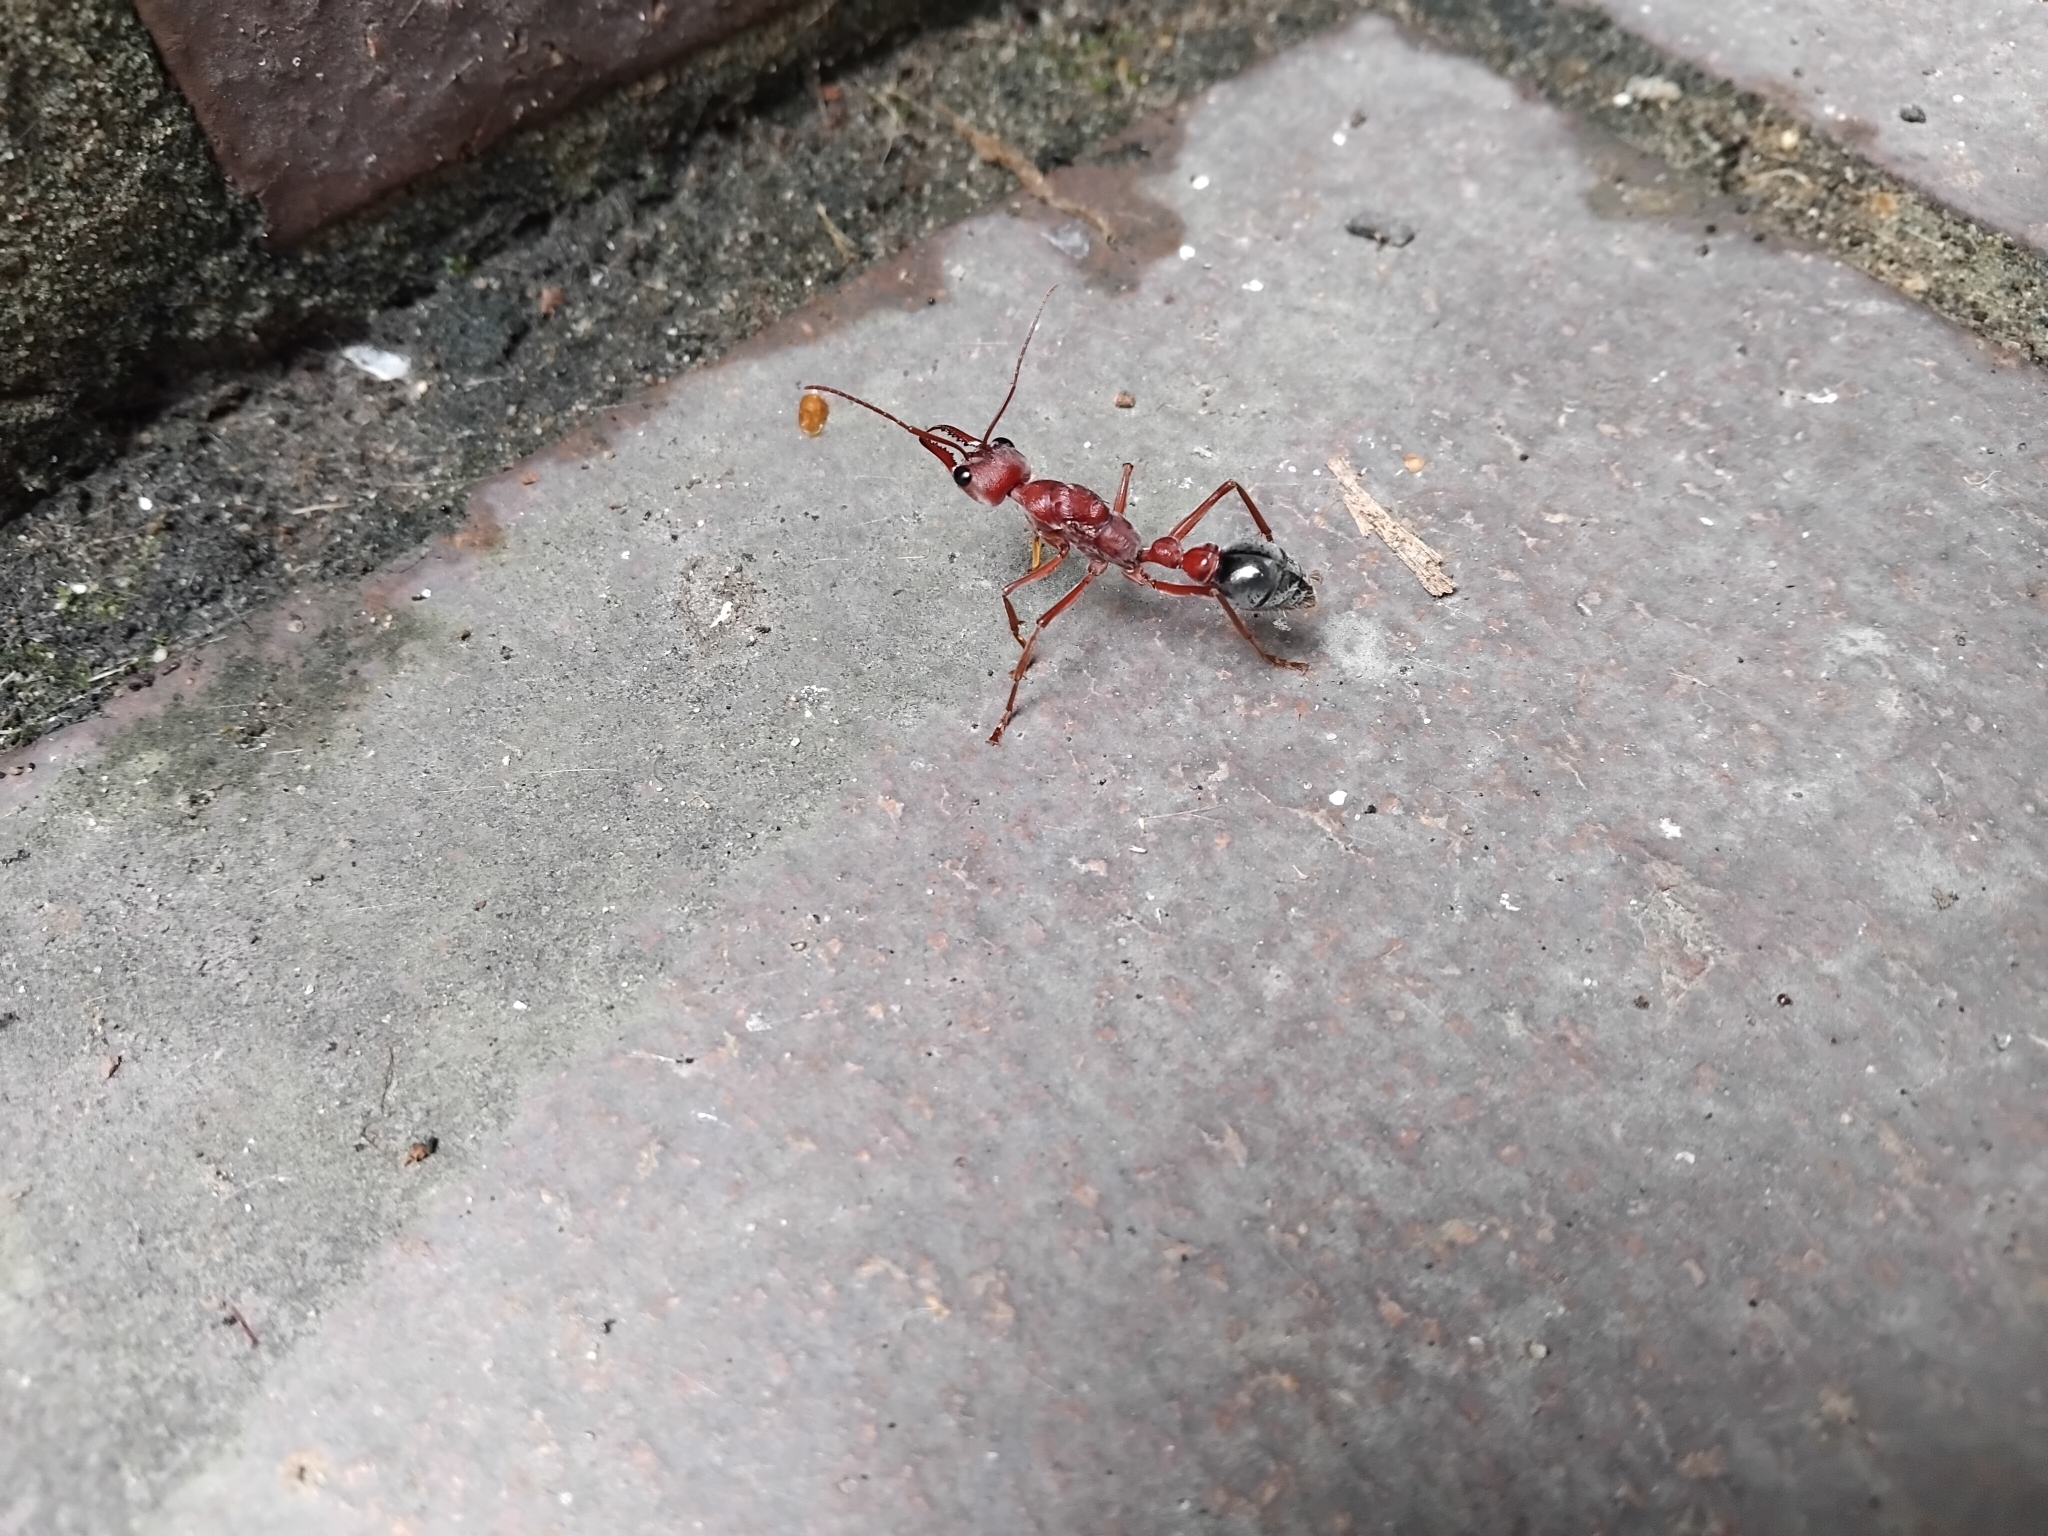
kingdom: Animalia
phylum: Arthropoda
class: Insecta
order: Hymenoptera
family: Formicidae
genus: Myrmecia
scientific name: Myrmecia brevinoda
